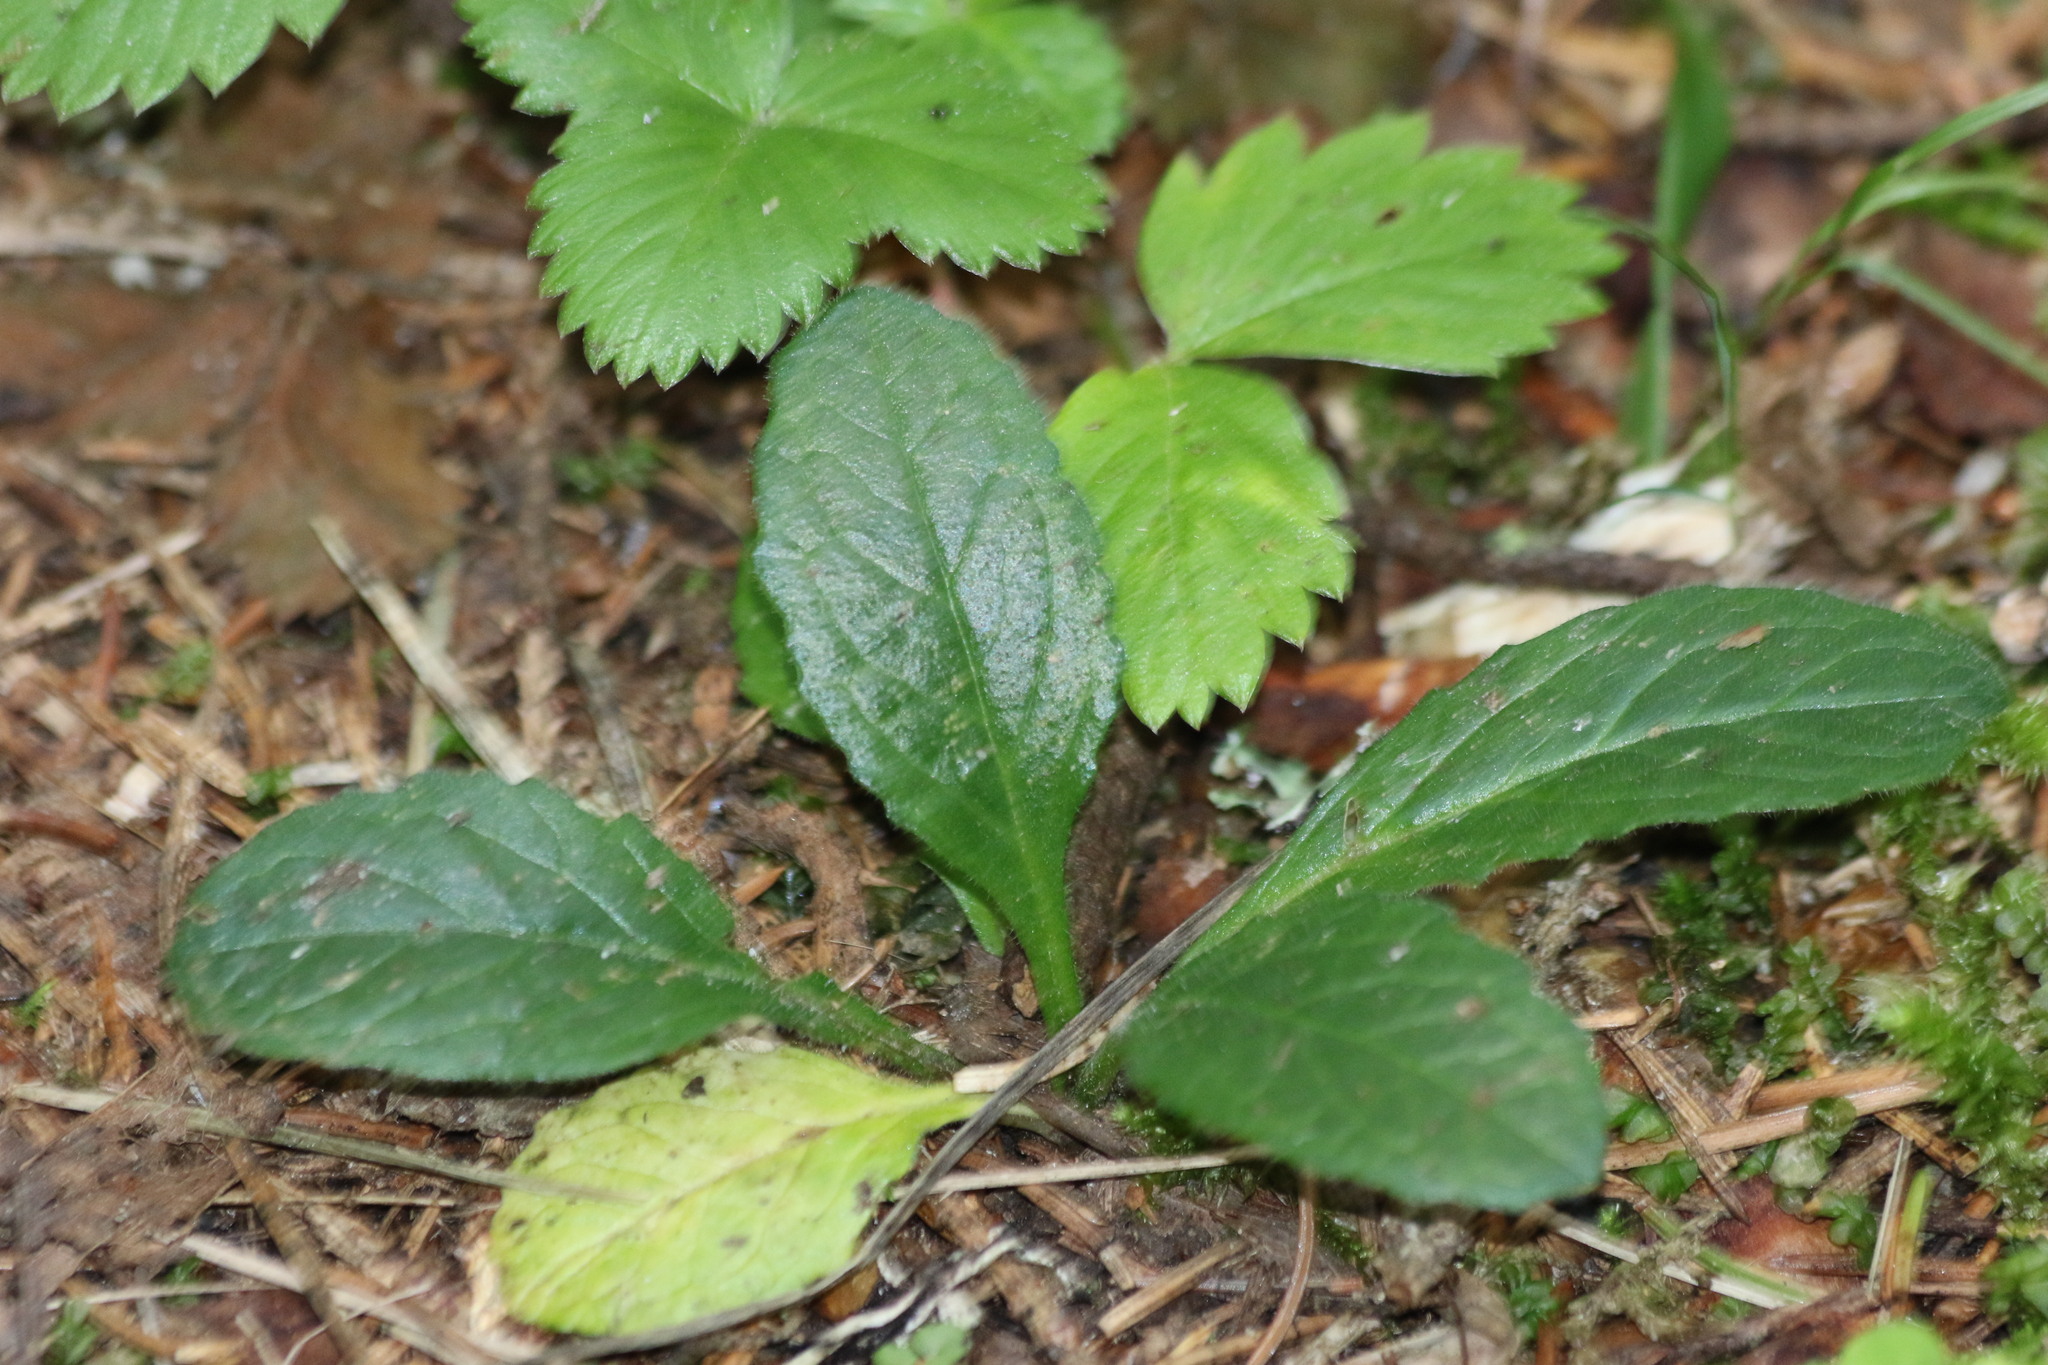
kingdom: Plantae
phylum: Tracheophyta
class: Magnoliopsida
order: Lamiales
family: Lamiaceae
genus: Ajuga
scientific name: Ajuga reptans
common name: Bugle
